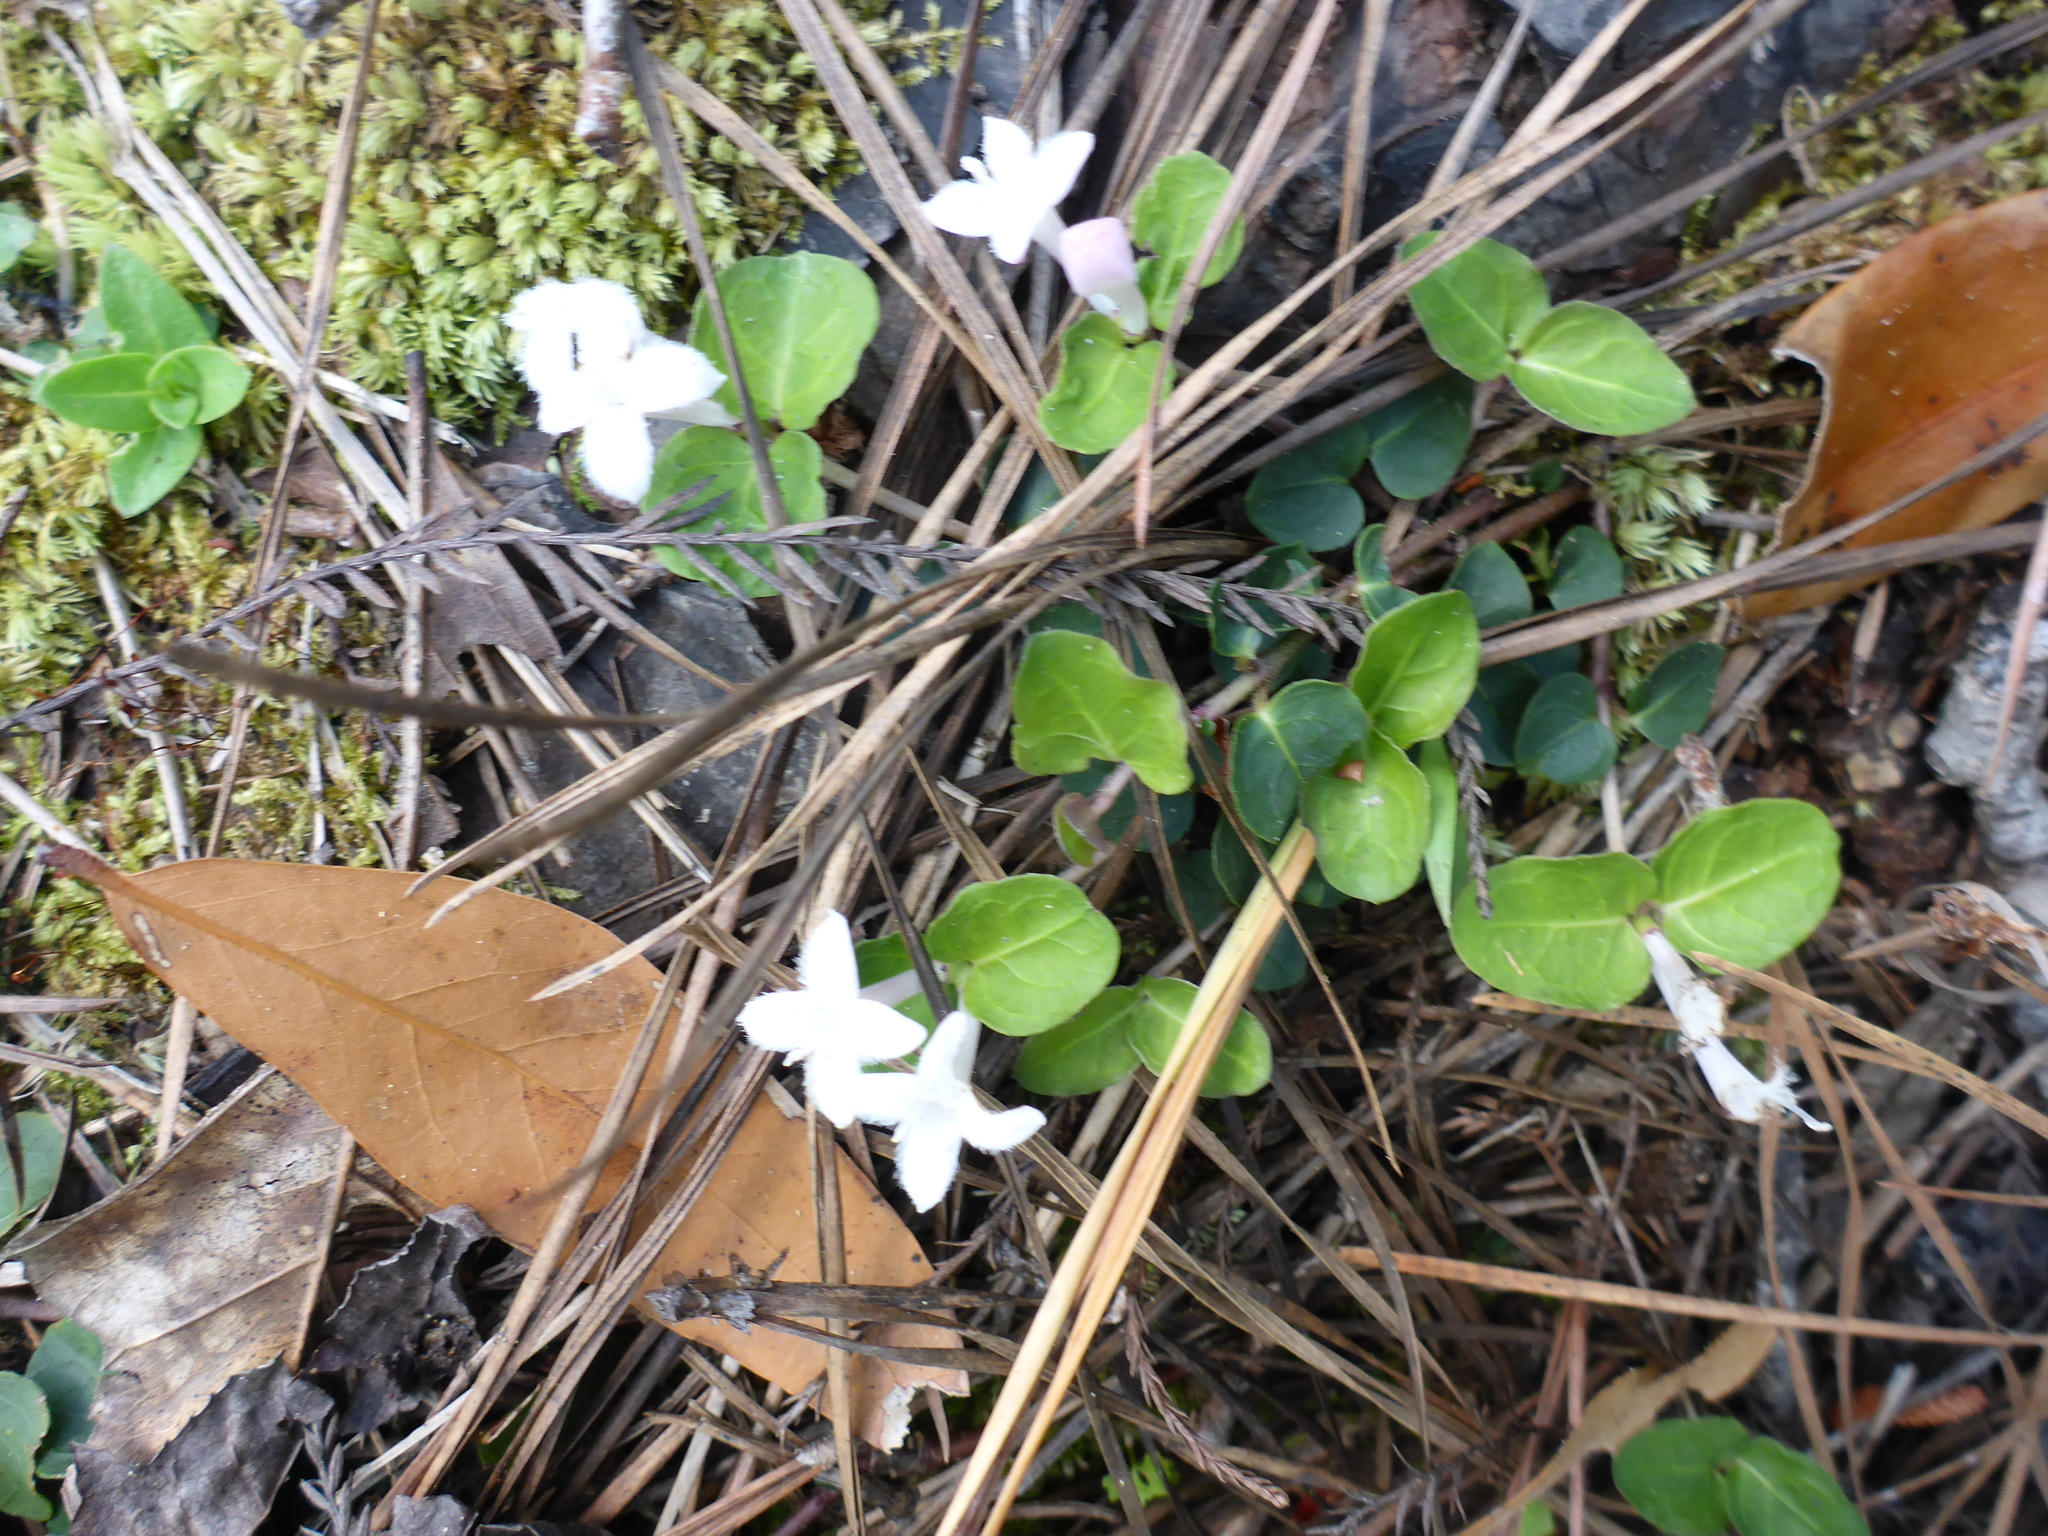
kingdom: Plantae
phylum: Tracheophyta
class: Magnoliopsida
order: Gentianales
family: Rubiaceae
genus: Mitchella
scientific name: Mitchella repens
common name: Partridge-berry
